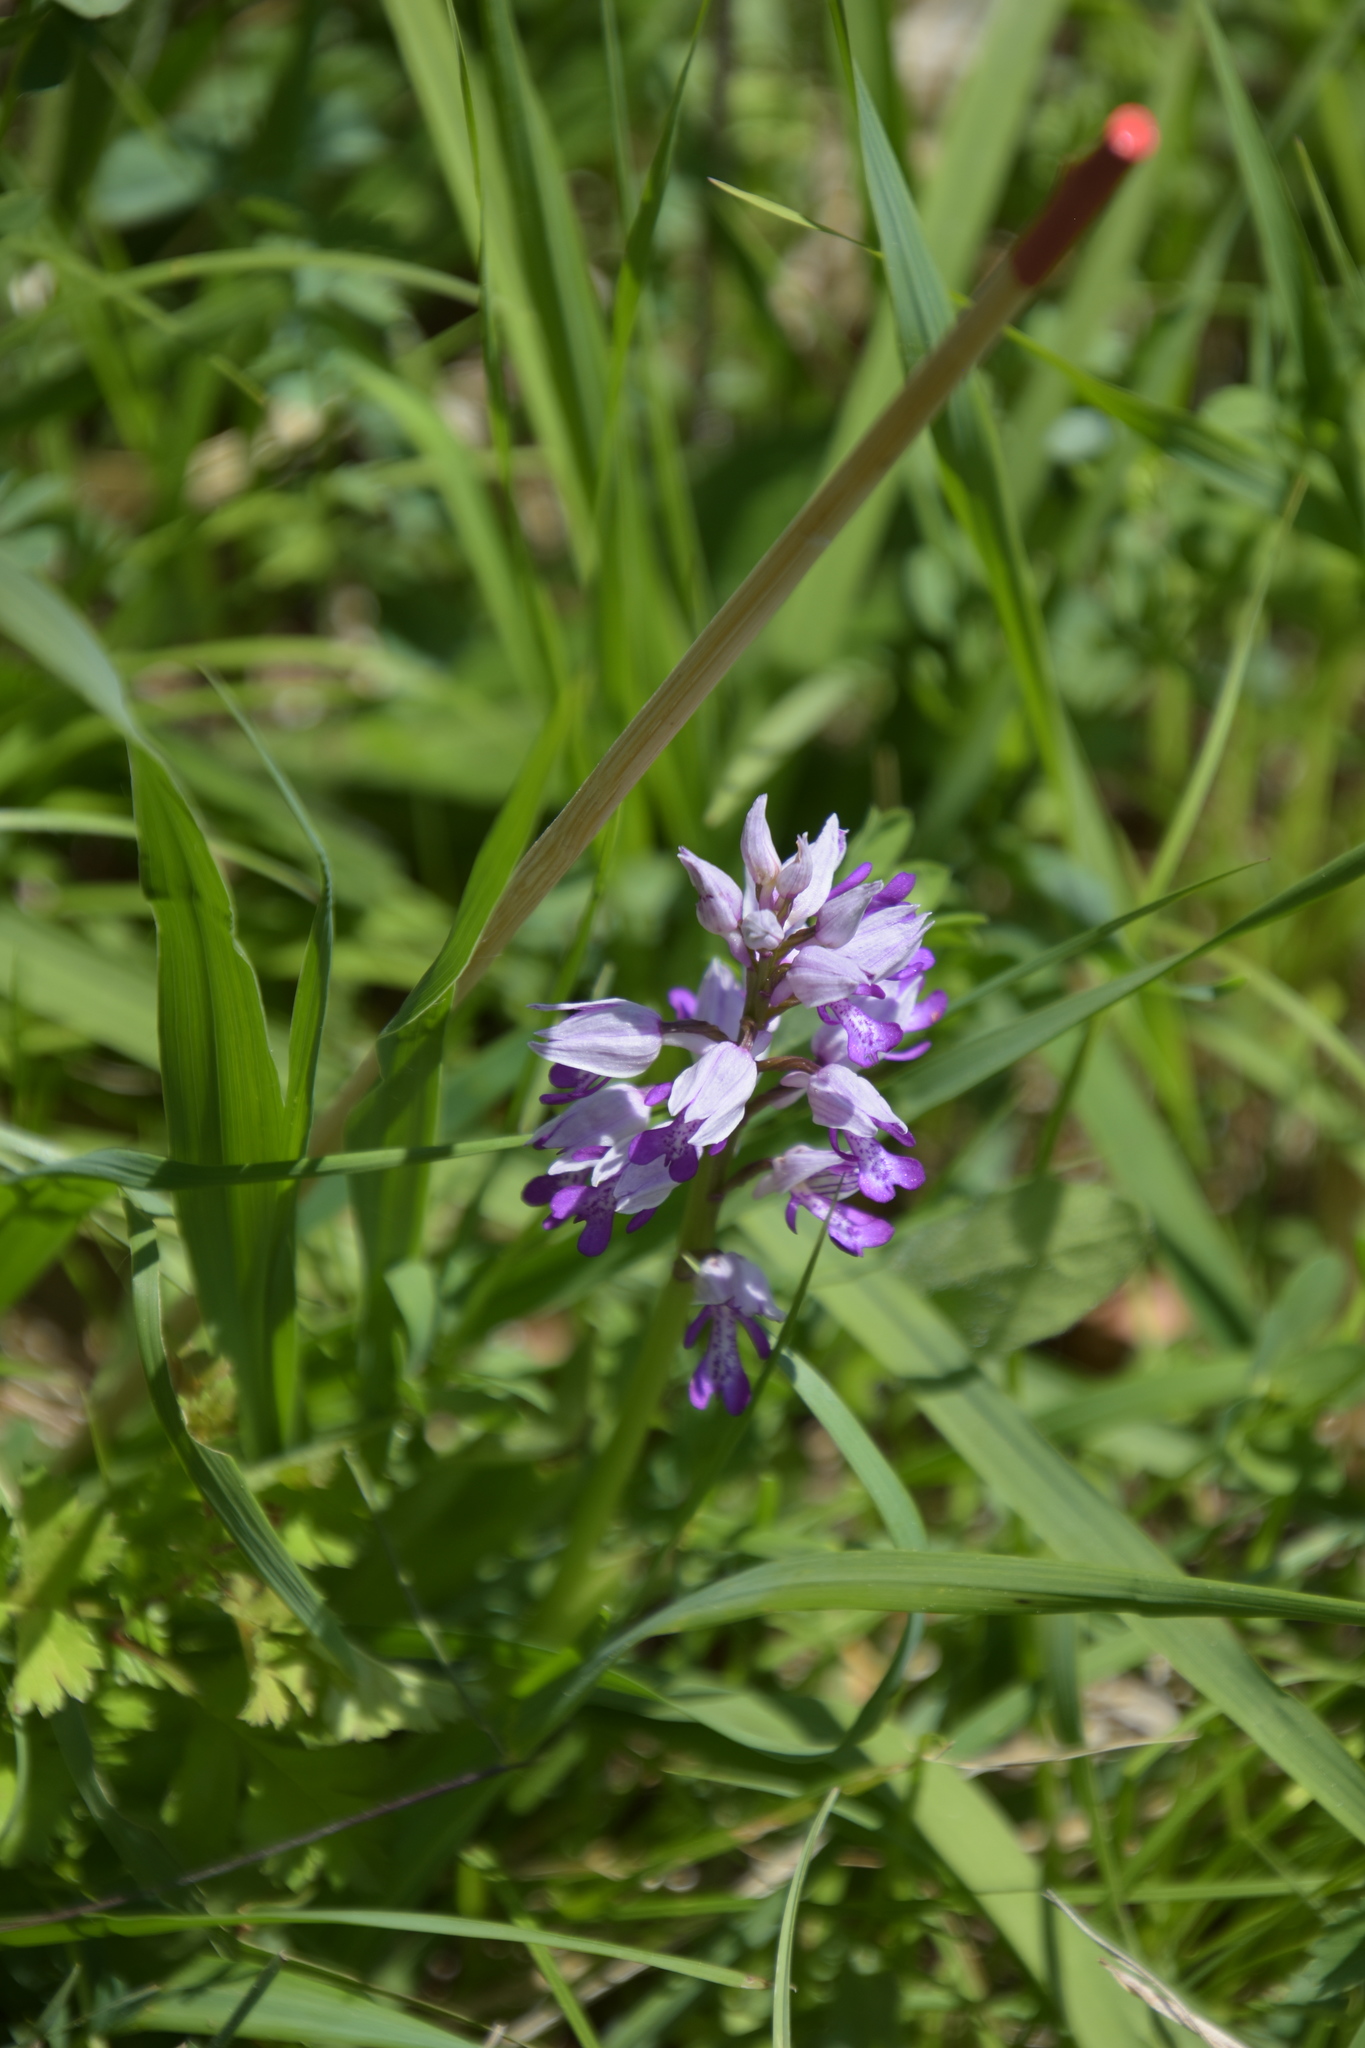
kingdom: Plantae
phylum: Tracheophyta
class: Liliopsida
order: Asparagales
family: Orchidaceae
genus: Orchis
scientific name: Orchis militaris
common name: Military orchid
